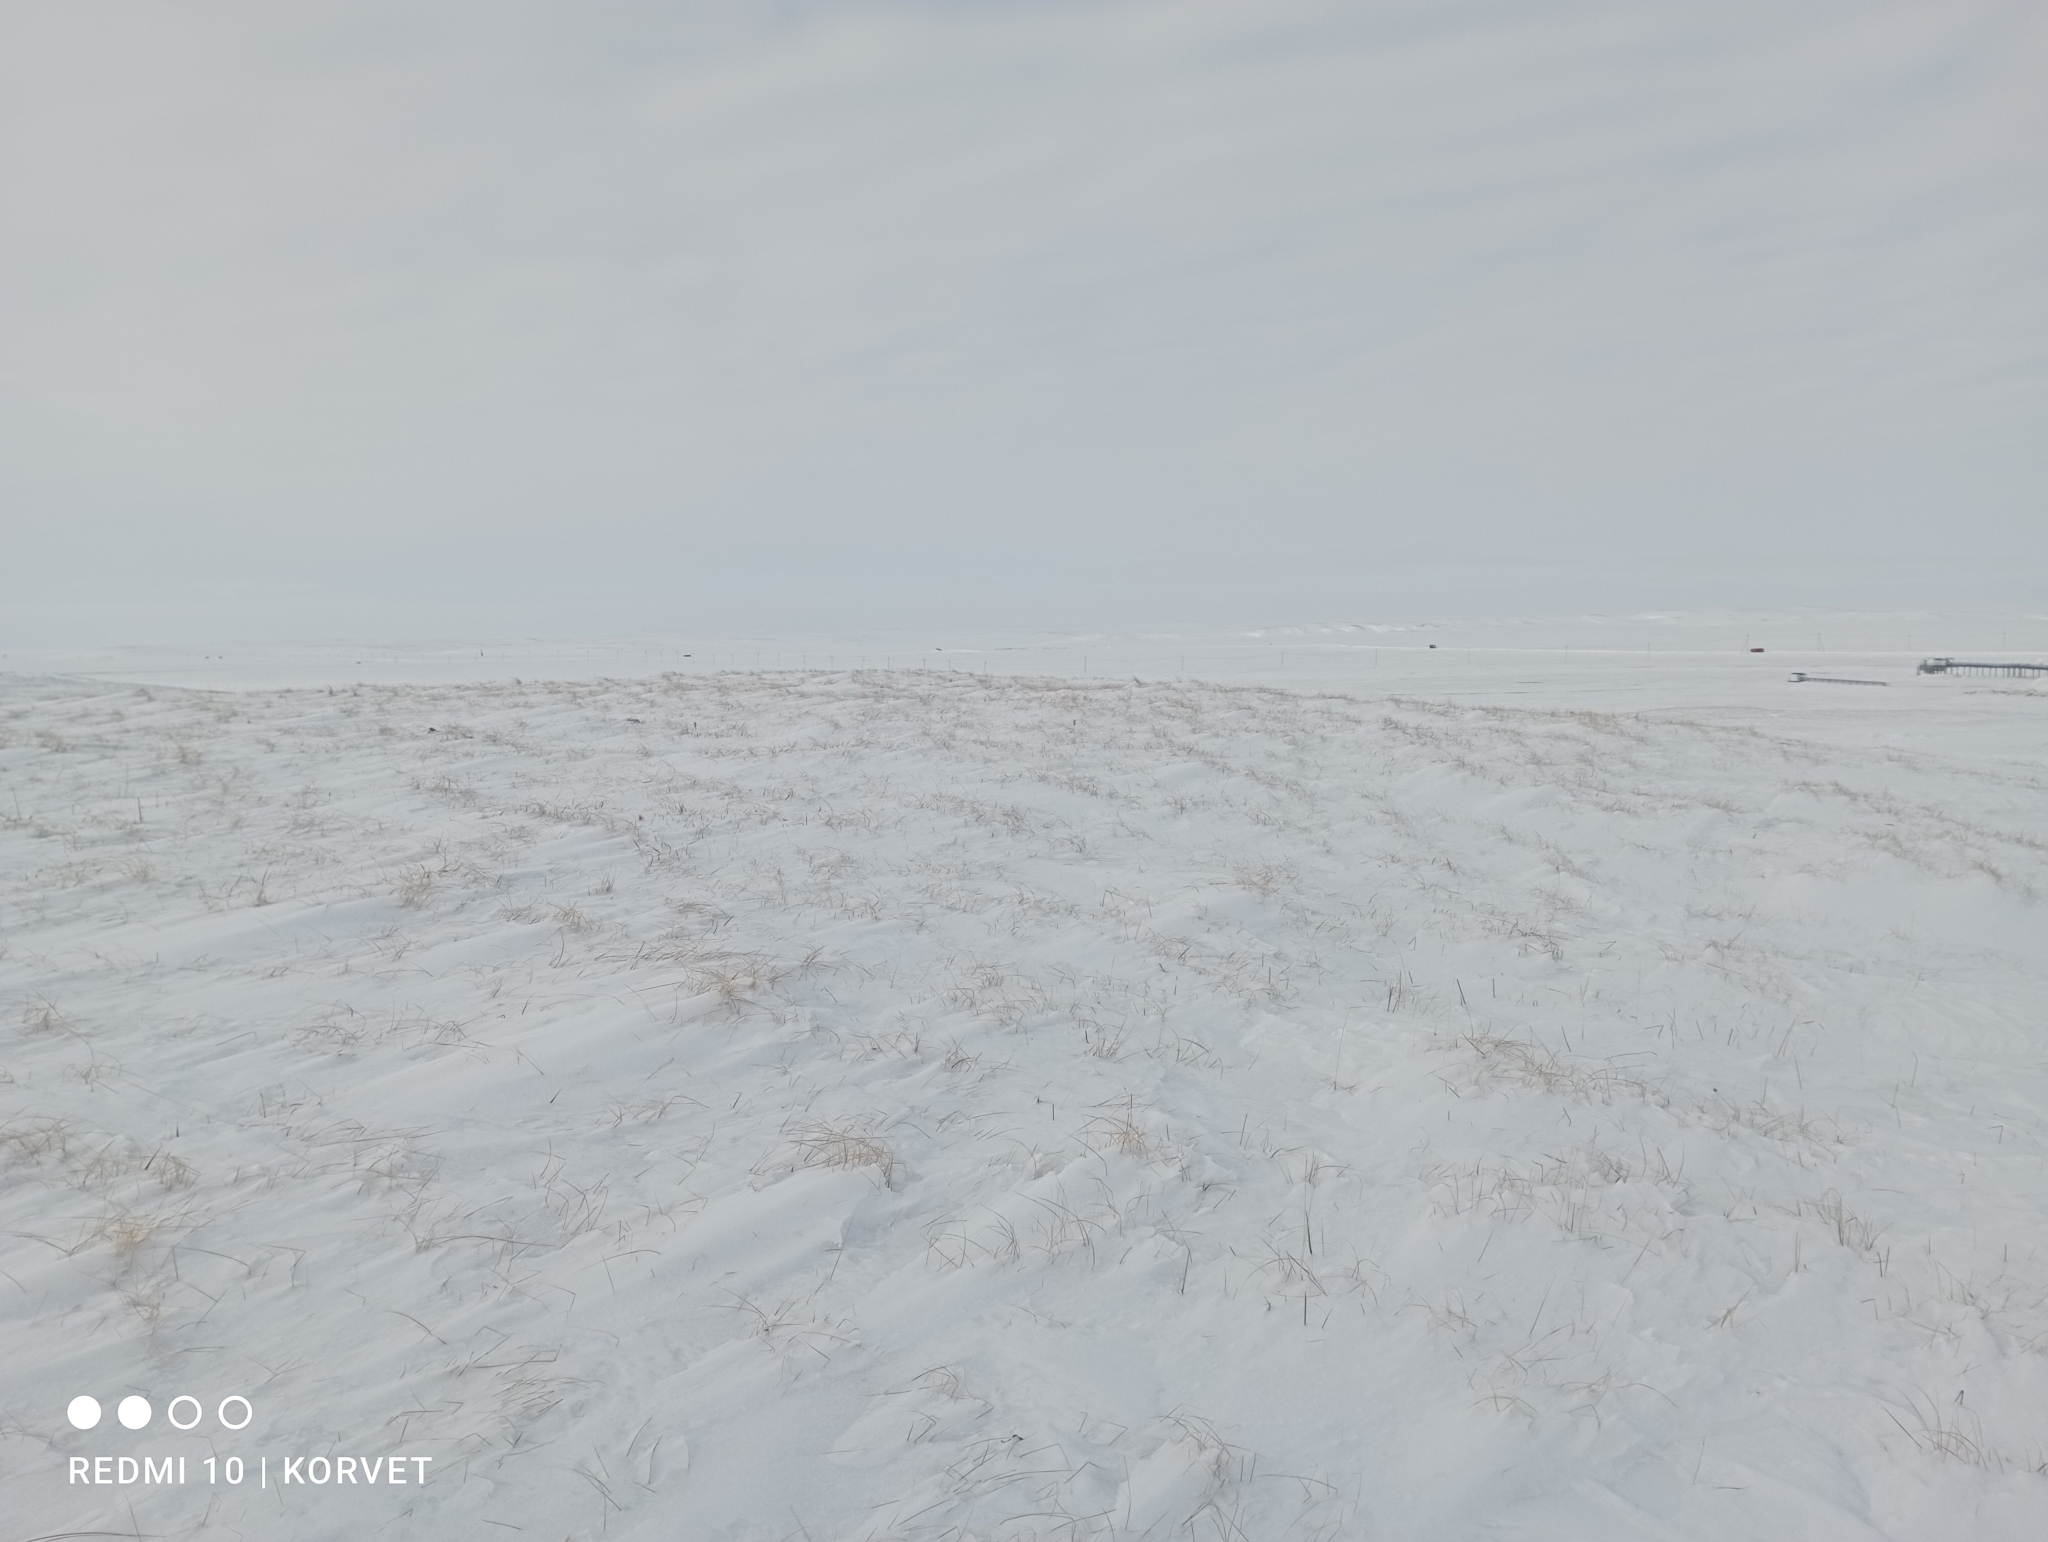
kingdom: Plantae
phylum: Tracheophyta
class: Magnoliopsida
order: Fabales
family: Fabaceae
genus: Oxytropis
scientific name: Oxytropis sordida
